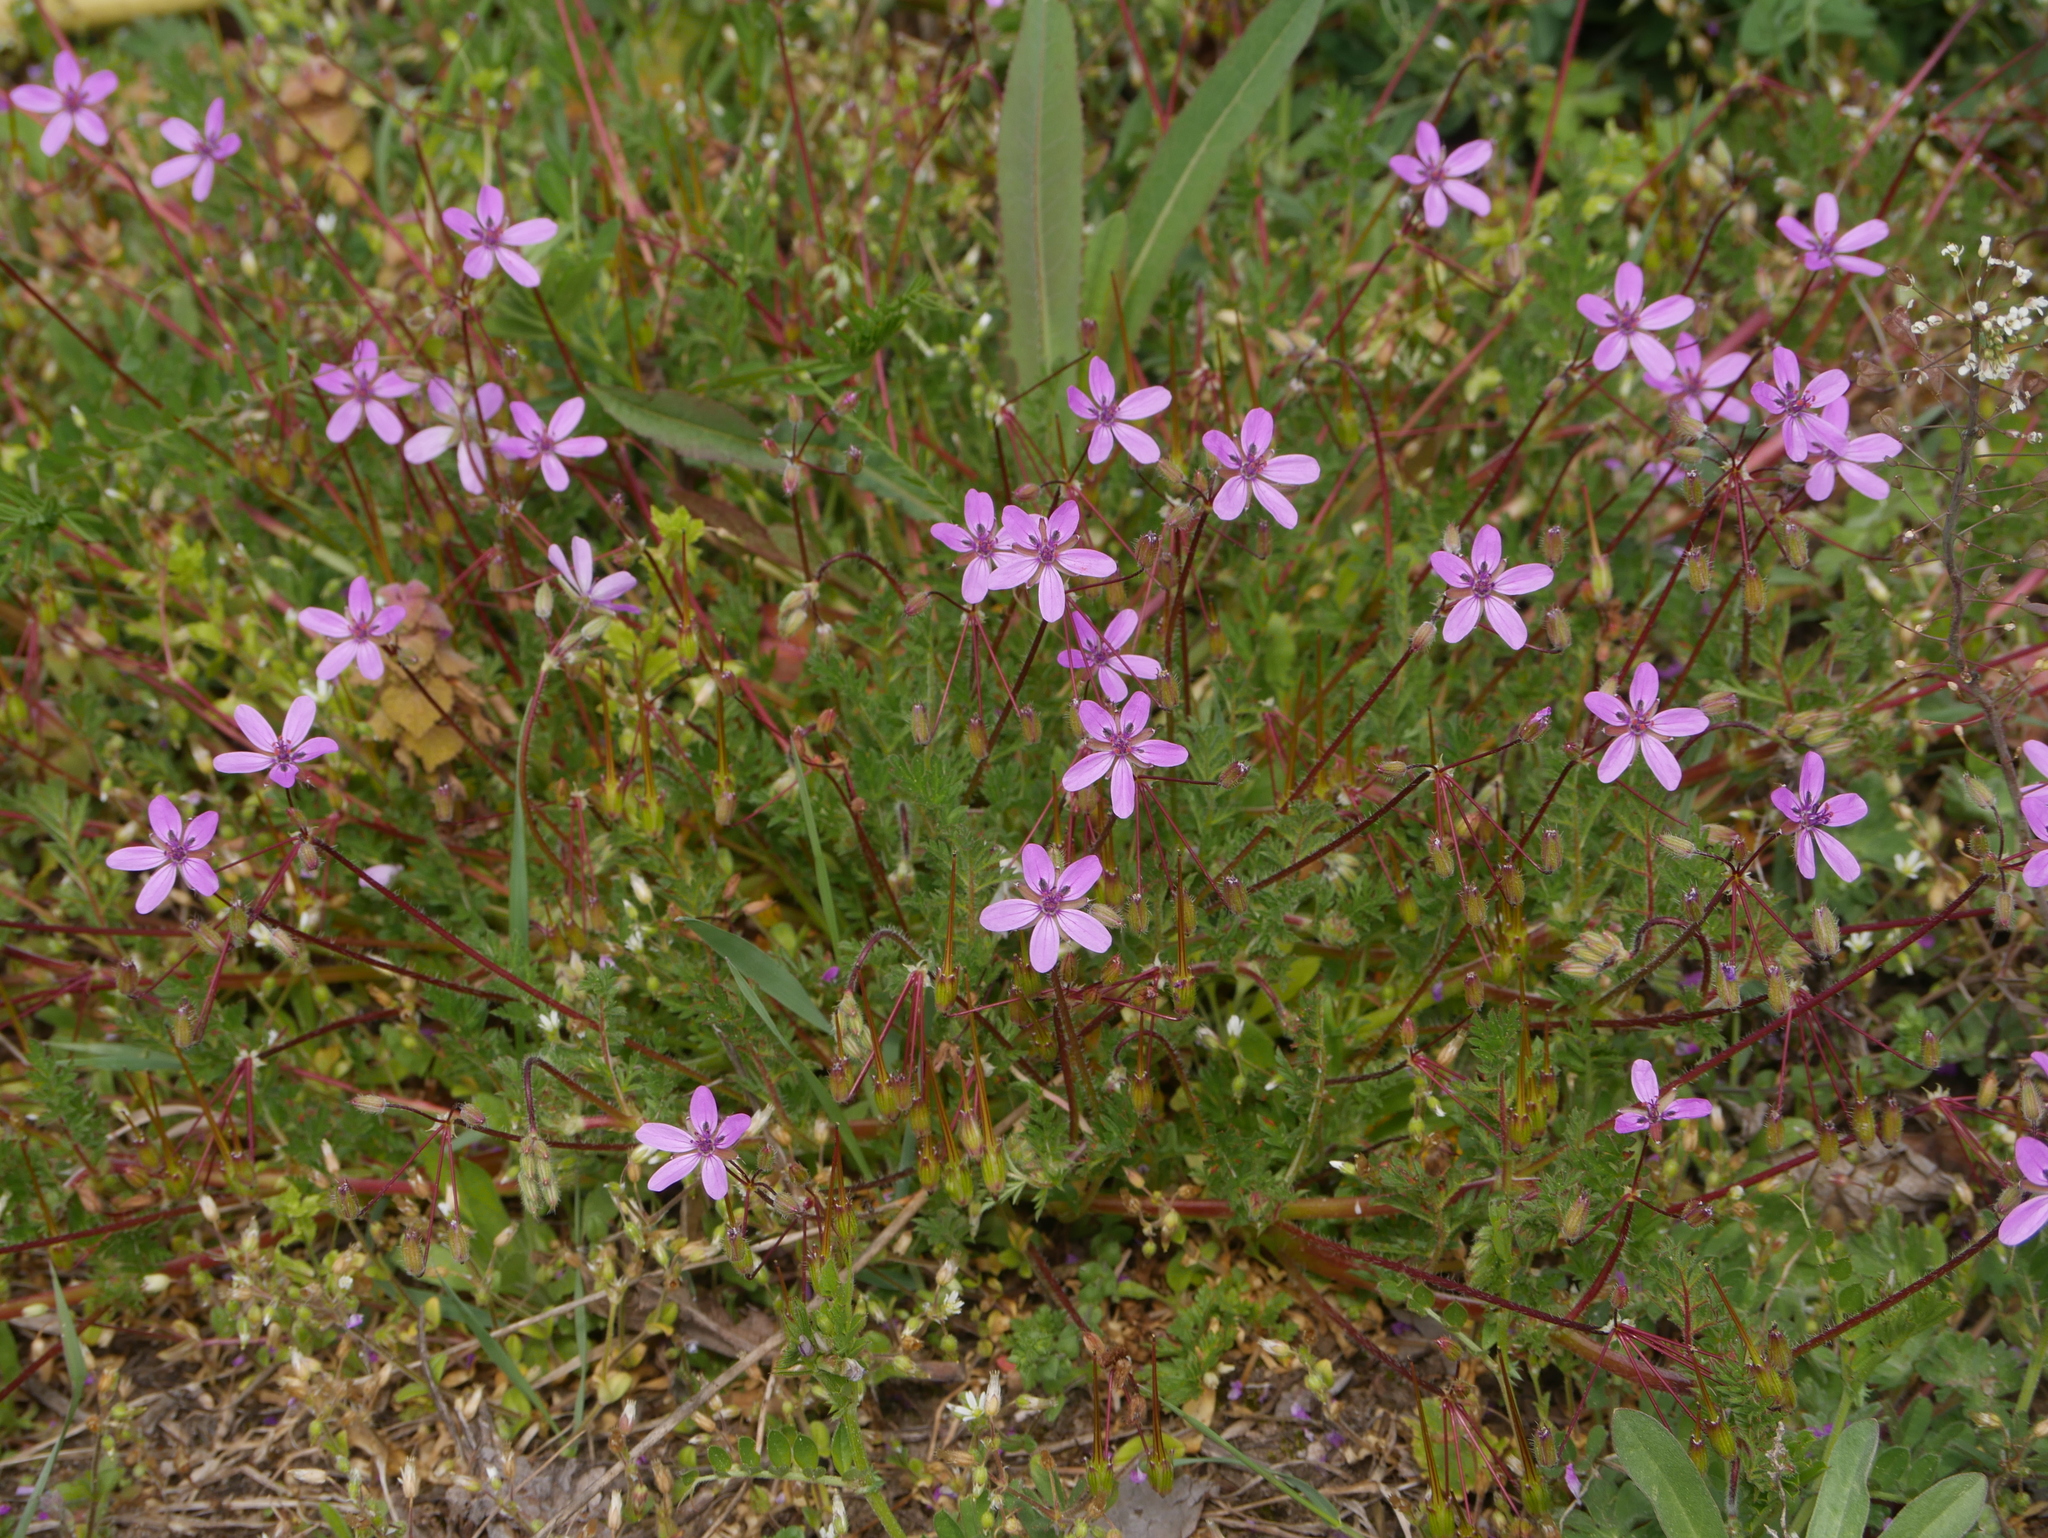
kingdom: Plantae
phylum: Tracheophyta
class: Magnoliopsida
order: Geraniales
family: Geraniaceae
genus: Erodium
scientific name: Erodium cicutarium
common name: Common stork's-bill
